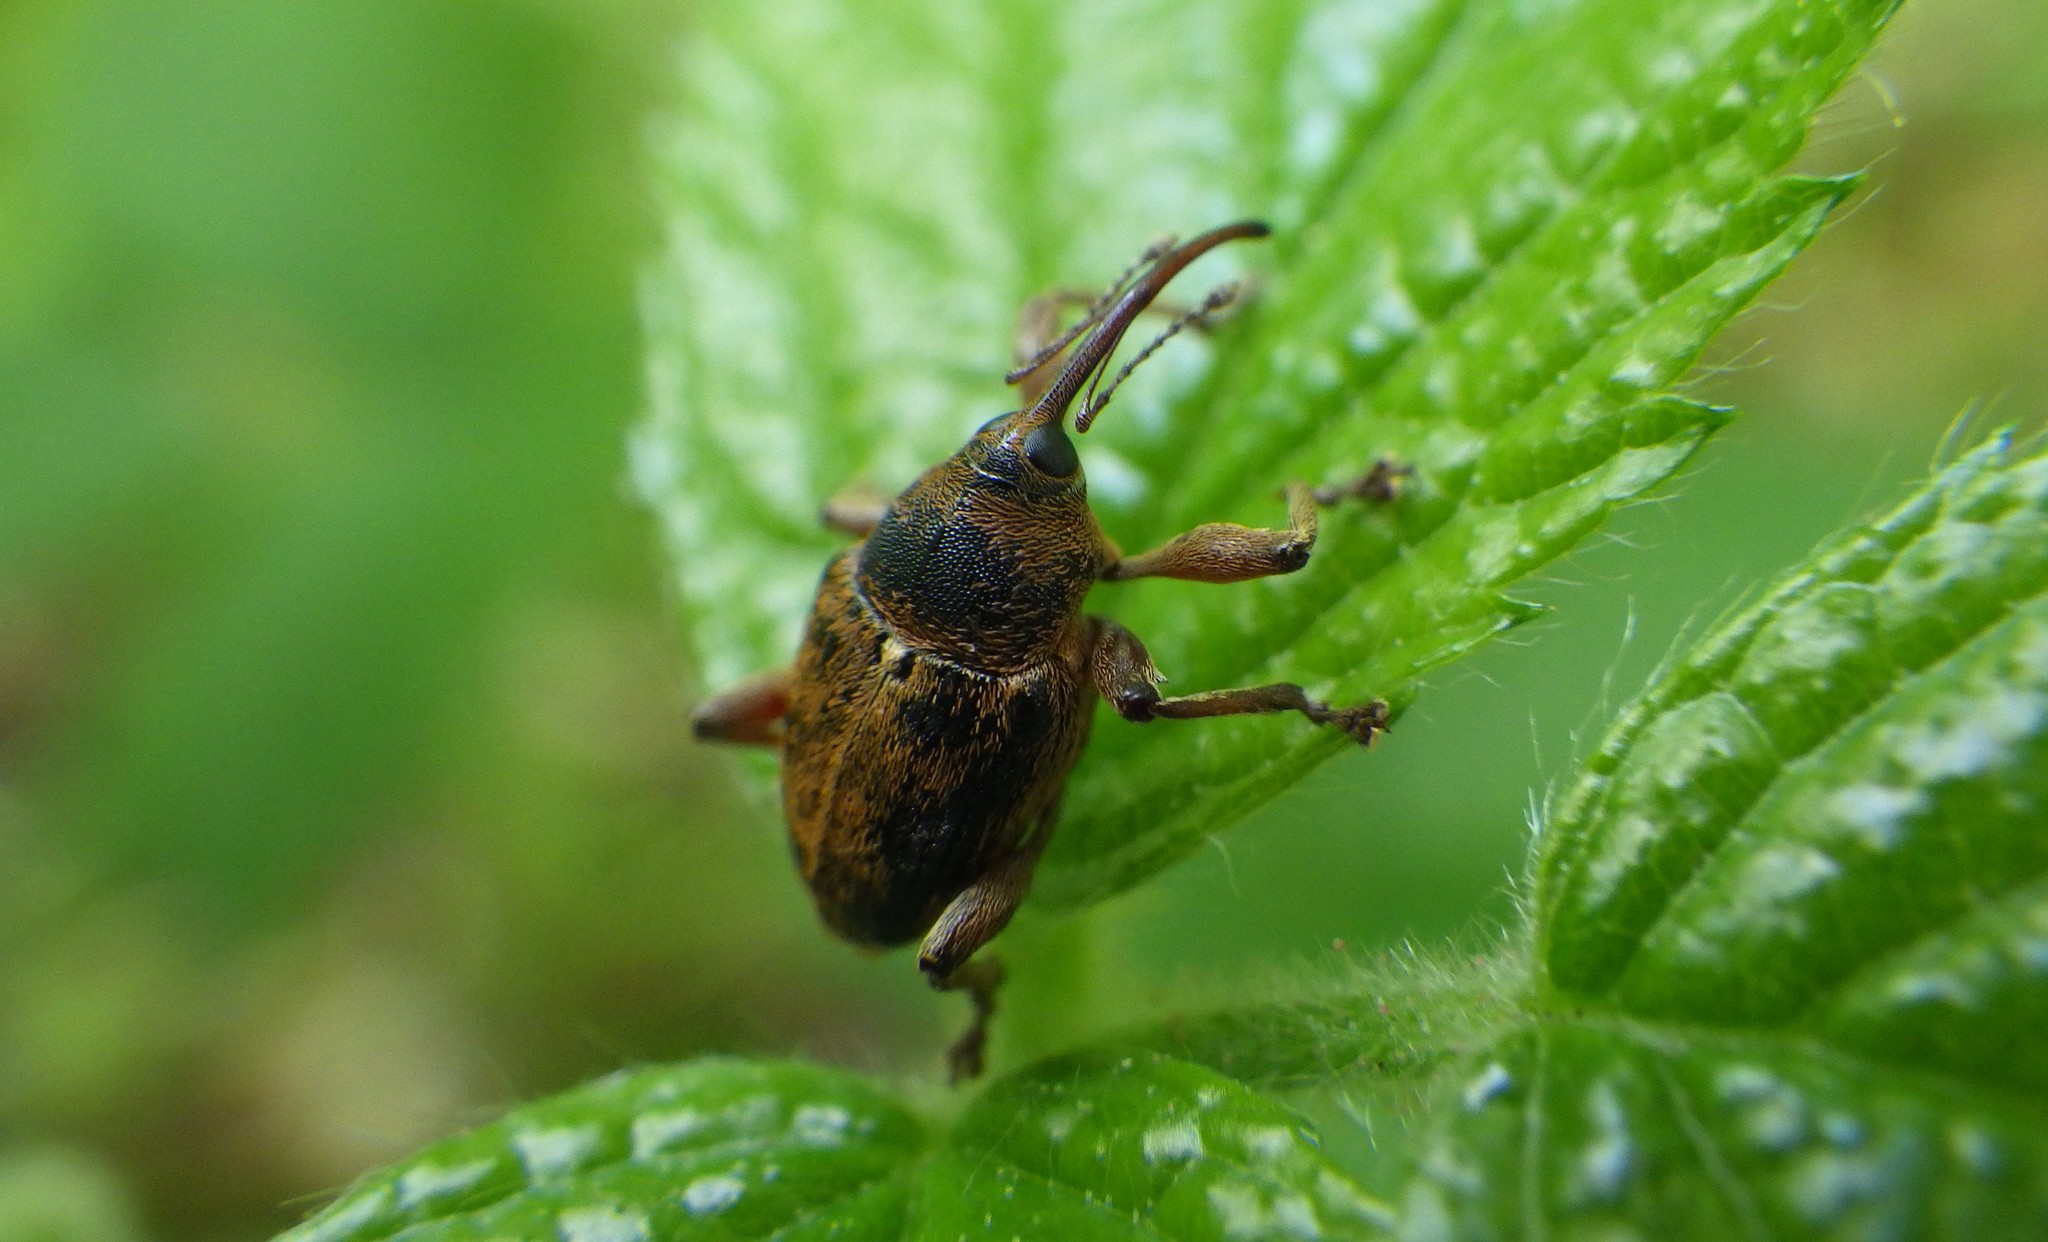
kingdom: Animalia
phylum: Arthropoda
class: Insecta
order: Coleoptera
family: Curculionidae
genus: Curculio
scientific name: Curculio venosus
